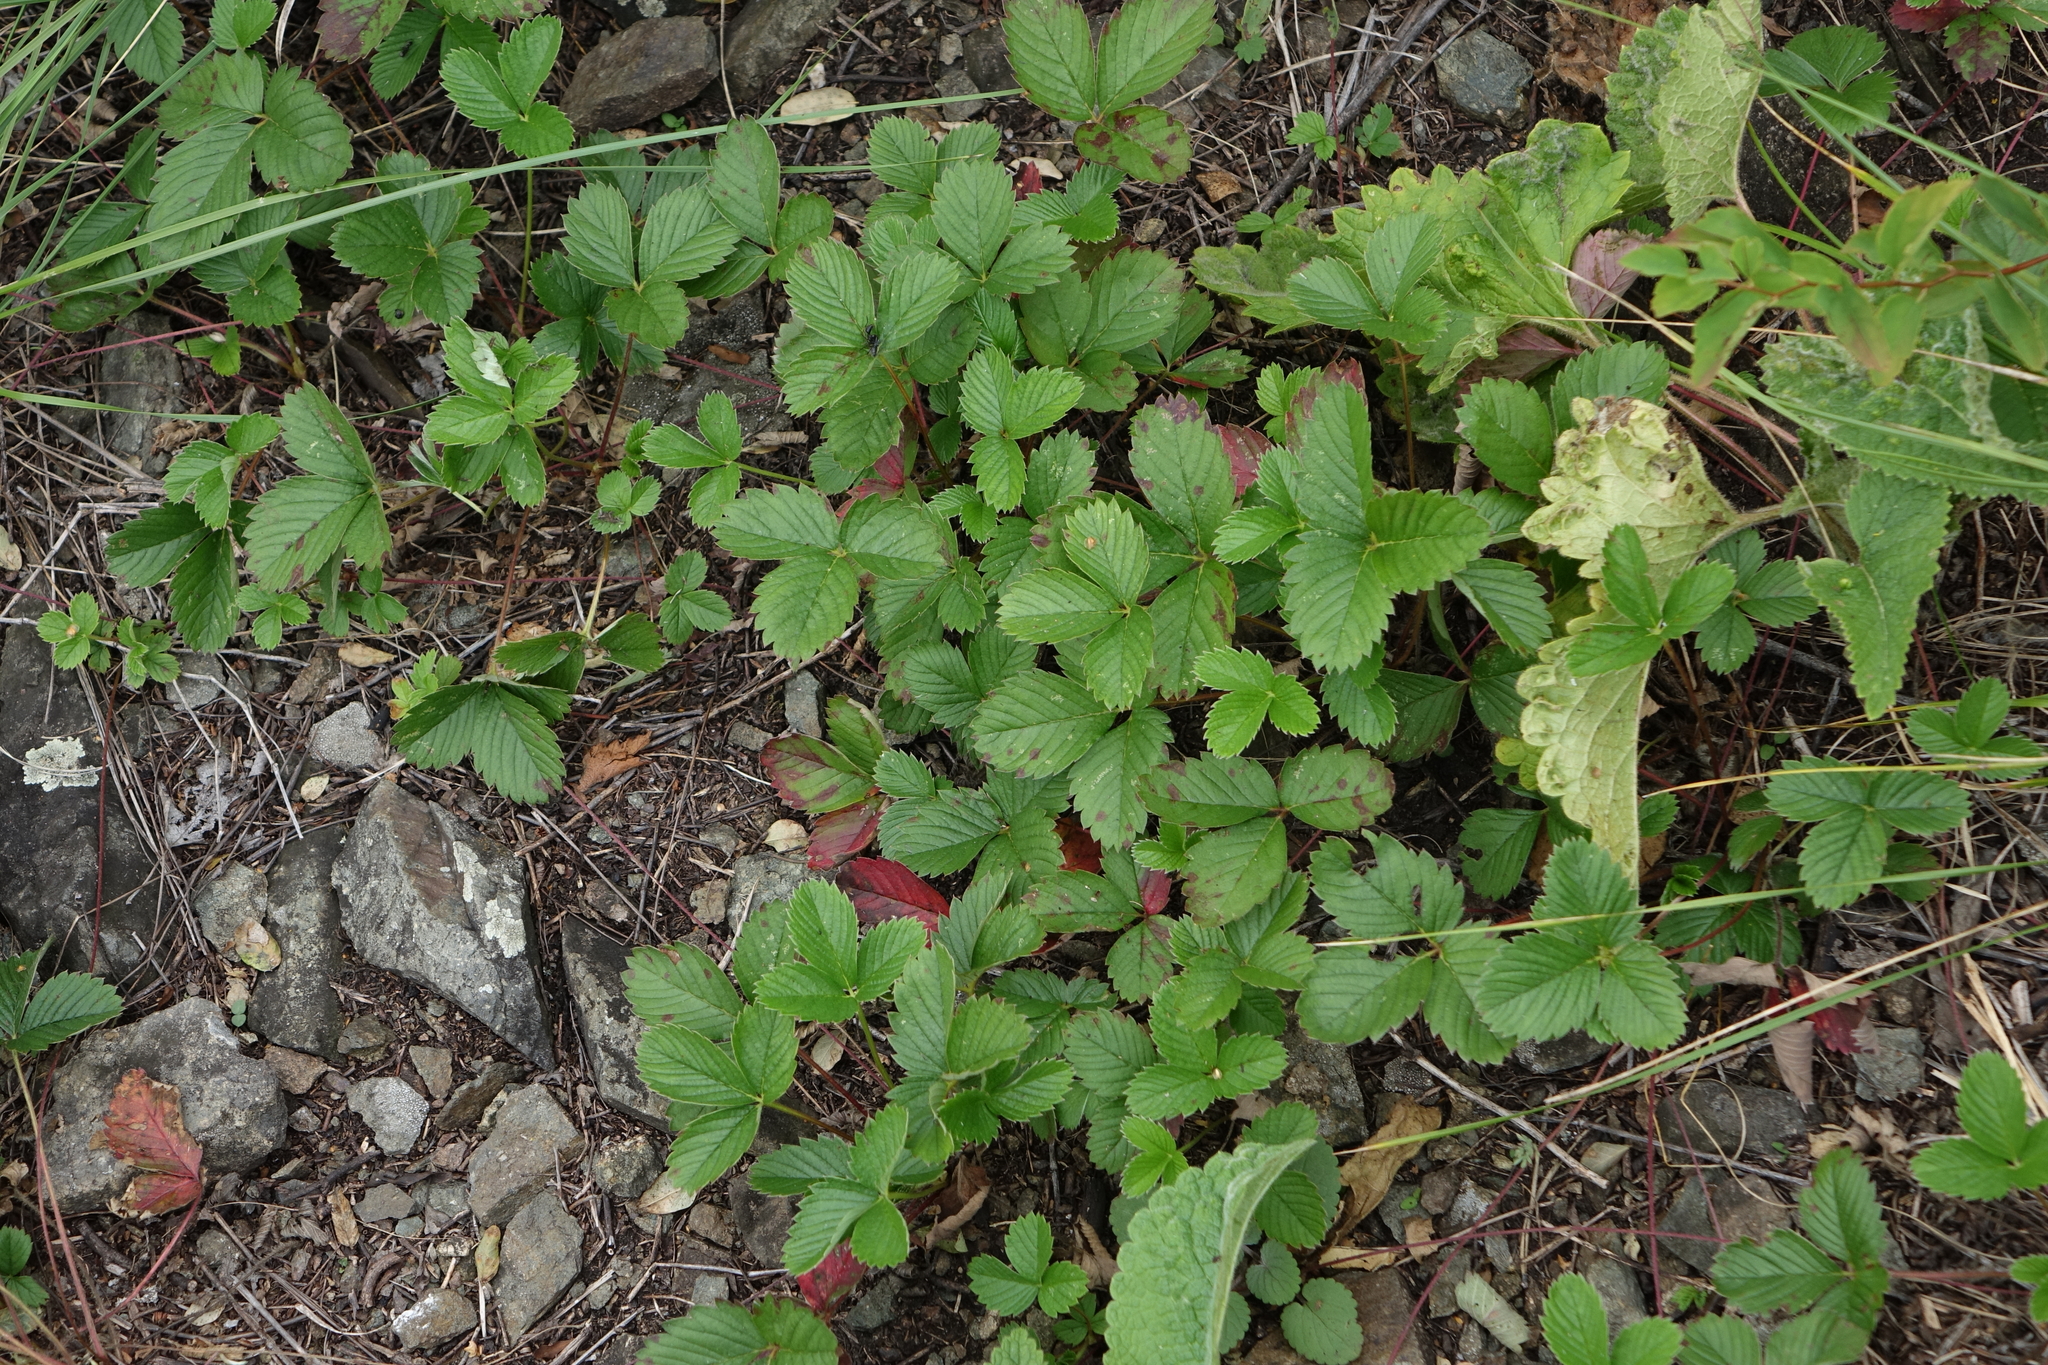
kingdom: Plantae
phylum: Tracheophyta
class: Magnoliopsida
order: Rosales
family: Rosaceae
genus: Fragaria
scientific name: Fragaria viridis
